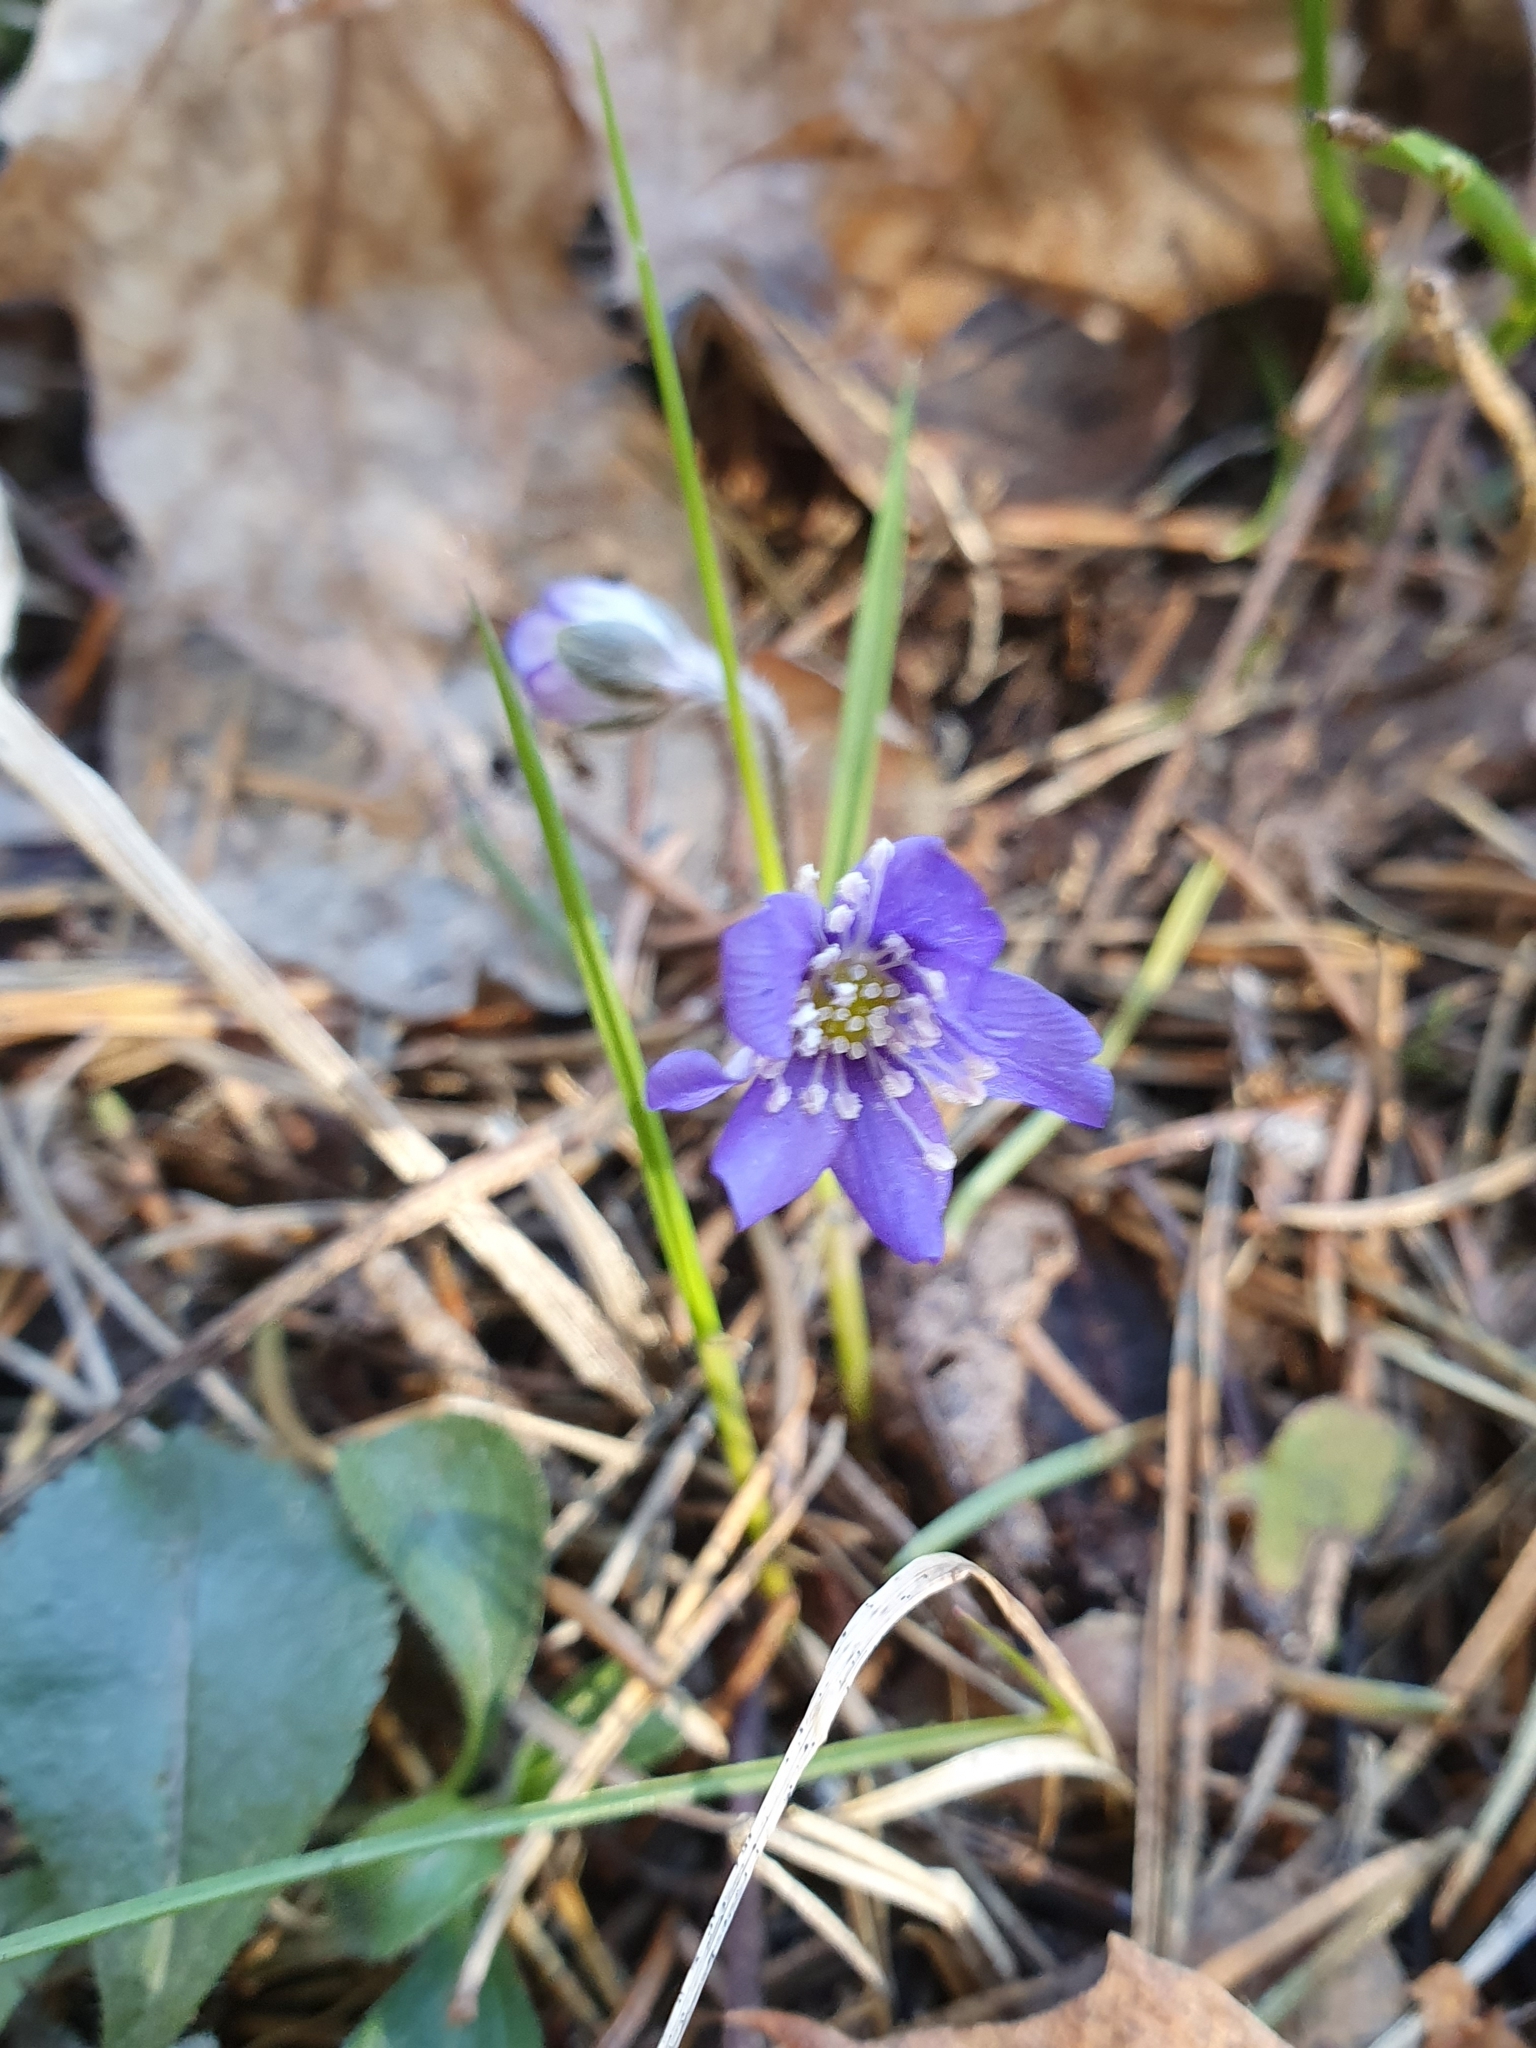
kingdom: Plantae
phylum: Tracheophyta
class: Magnoliopsida
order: Ranunculales
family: Ranunculaceae
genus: Hepatica
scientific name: Hepatica nobilis
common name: Liverleaf
